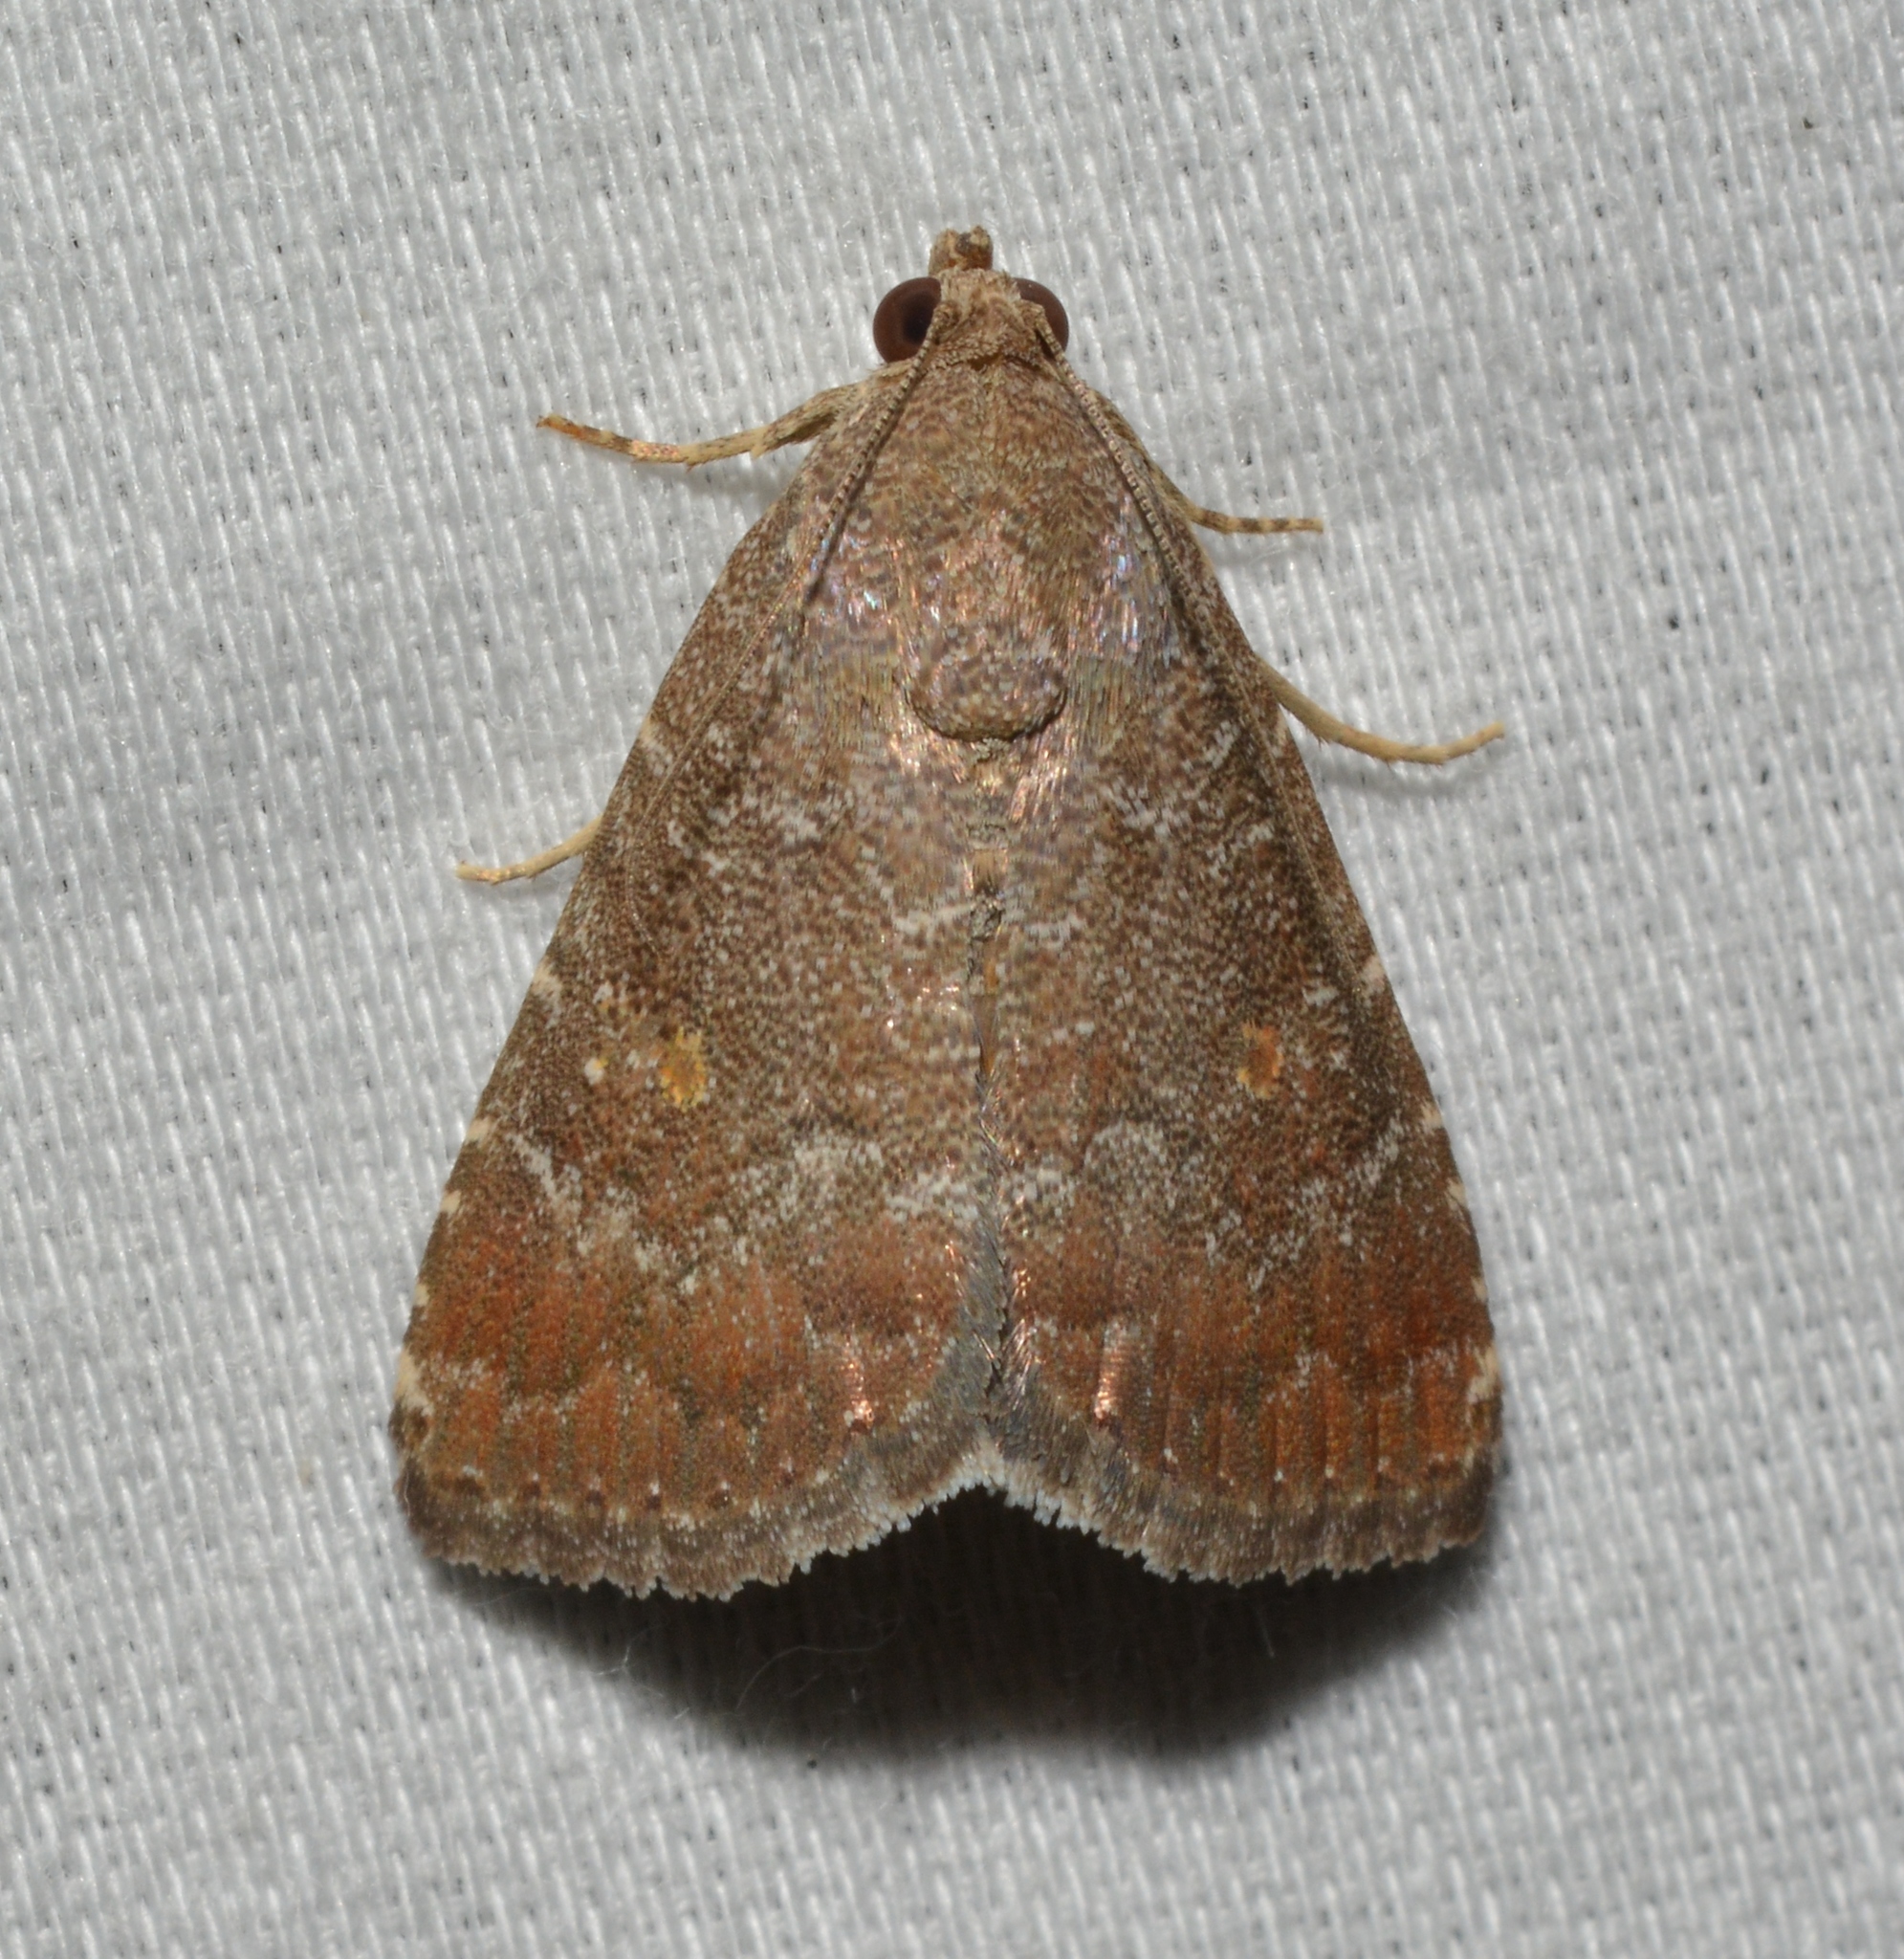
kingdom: Animalia
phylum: Arthropoda
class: Insecta
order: Lepidoptera
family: Noctuidae
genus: Amyna
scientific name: Amyna stricta
